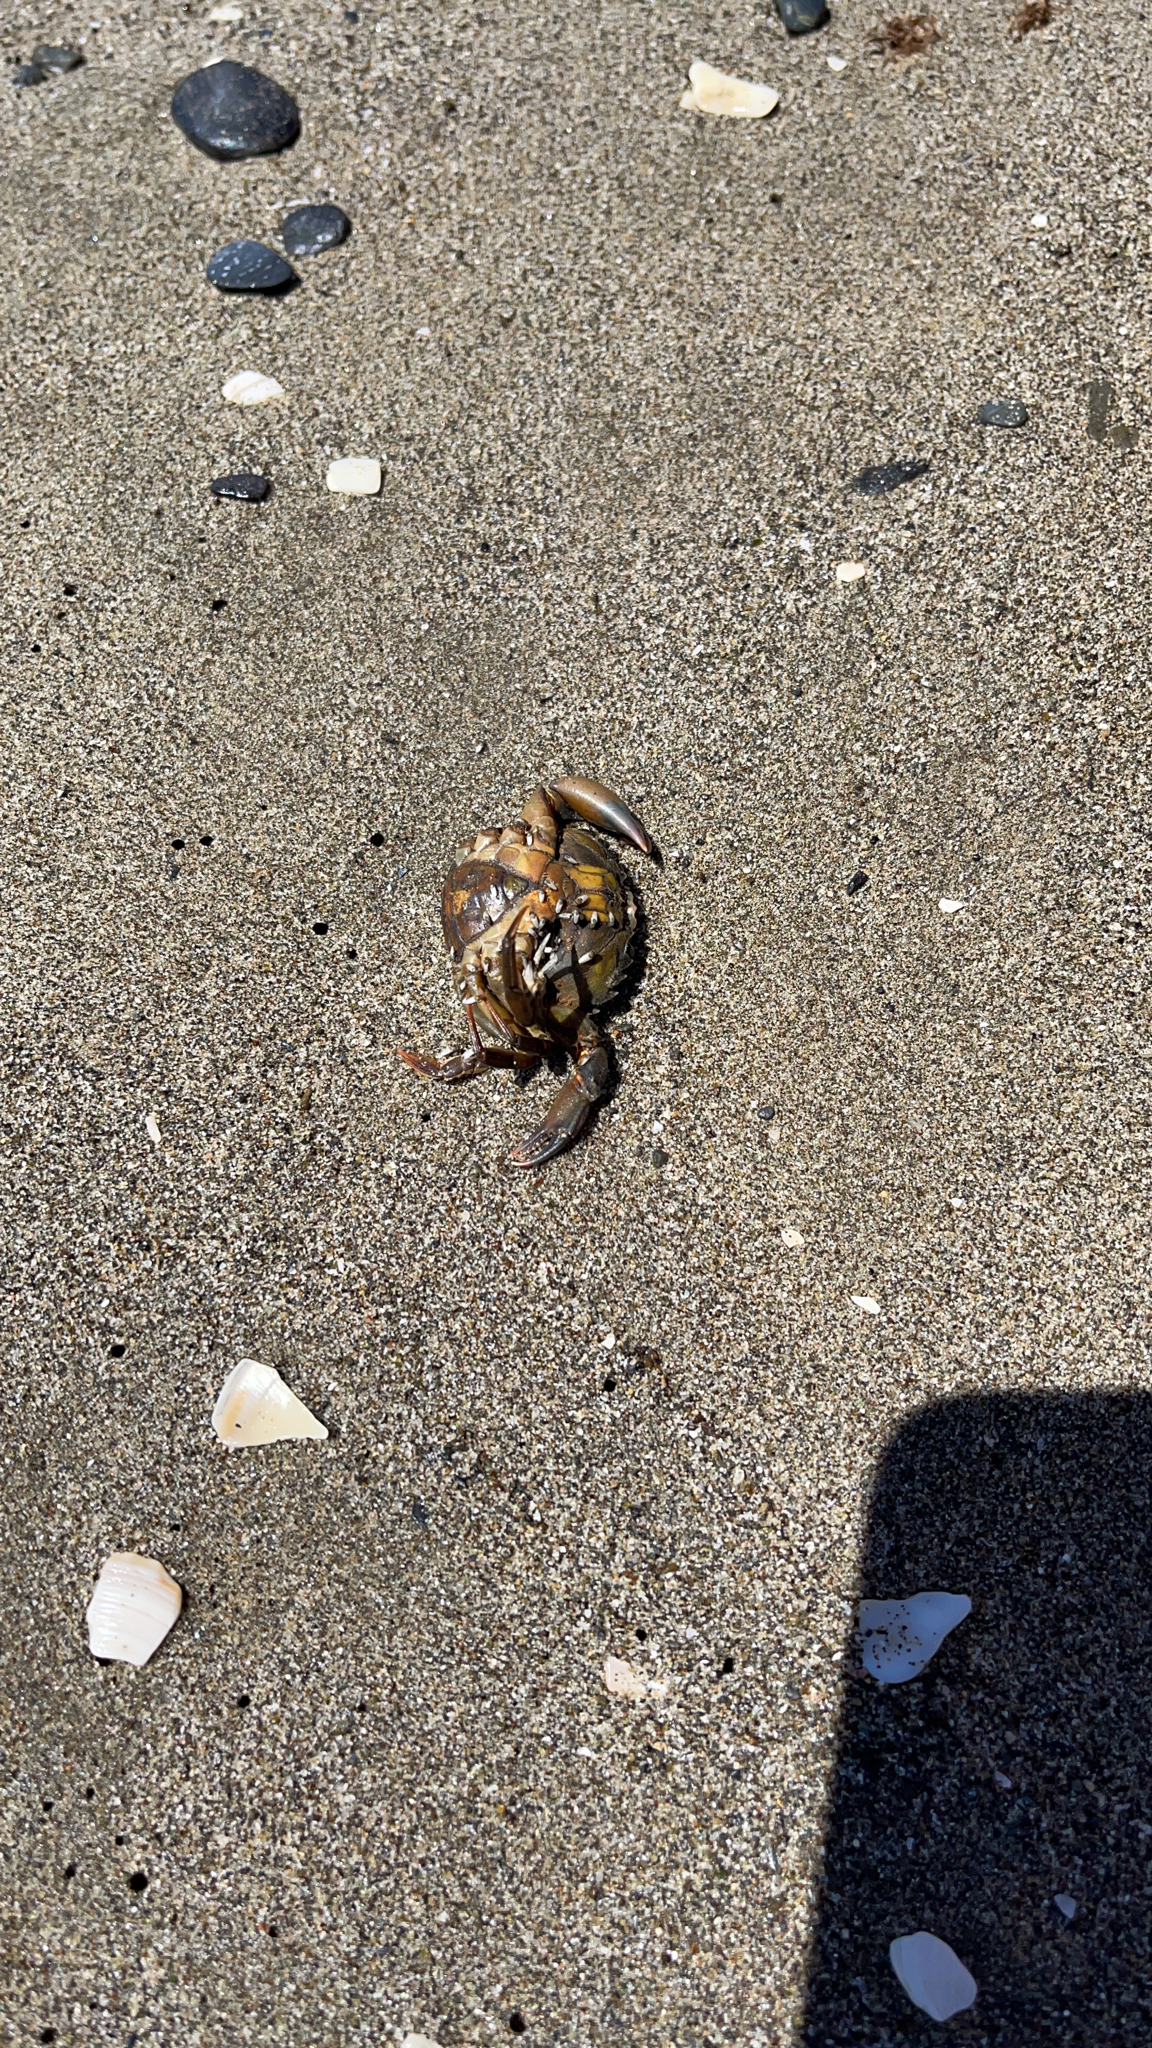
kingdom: Animalia
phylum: Arthropoda
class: Malacostraca
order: Decapoda
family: Carcinidae
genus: Carcinus
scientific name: Carcinus maenas
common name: European green crab
